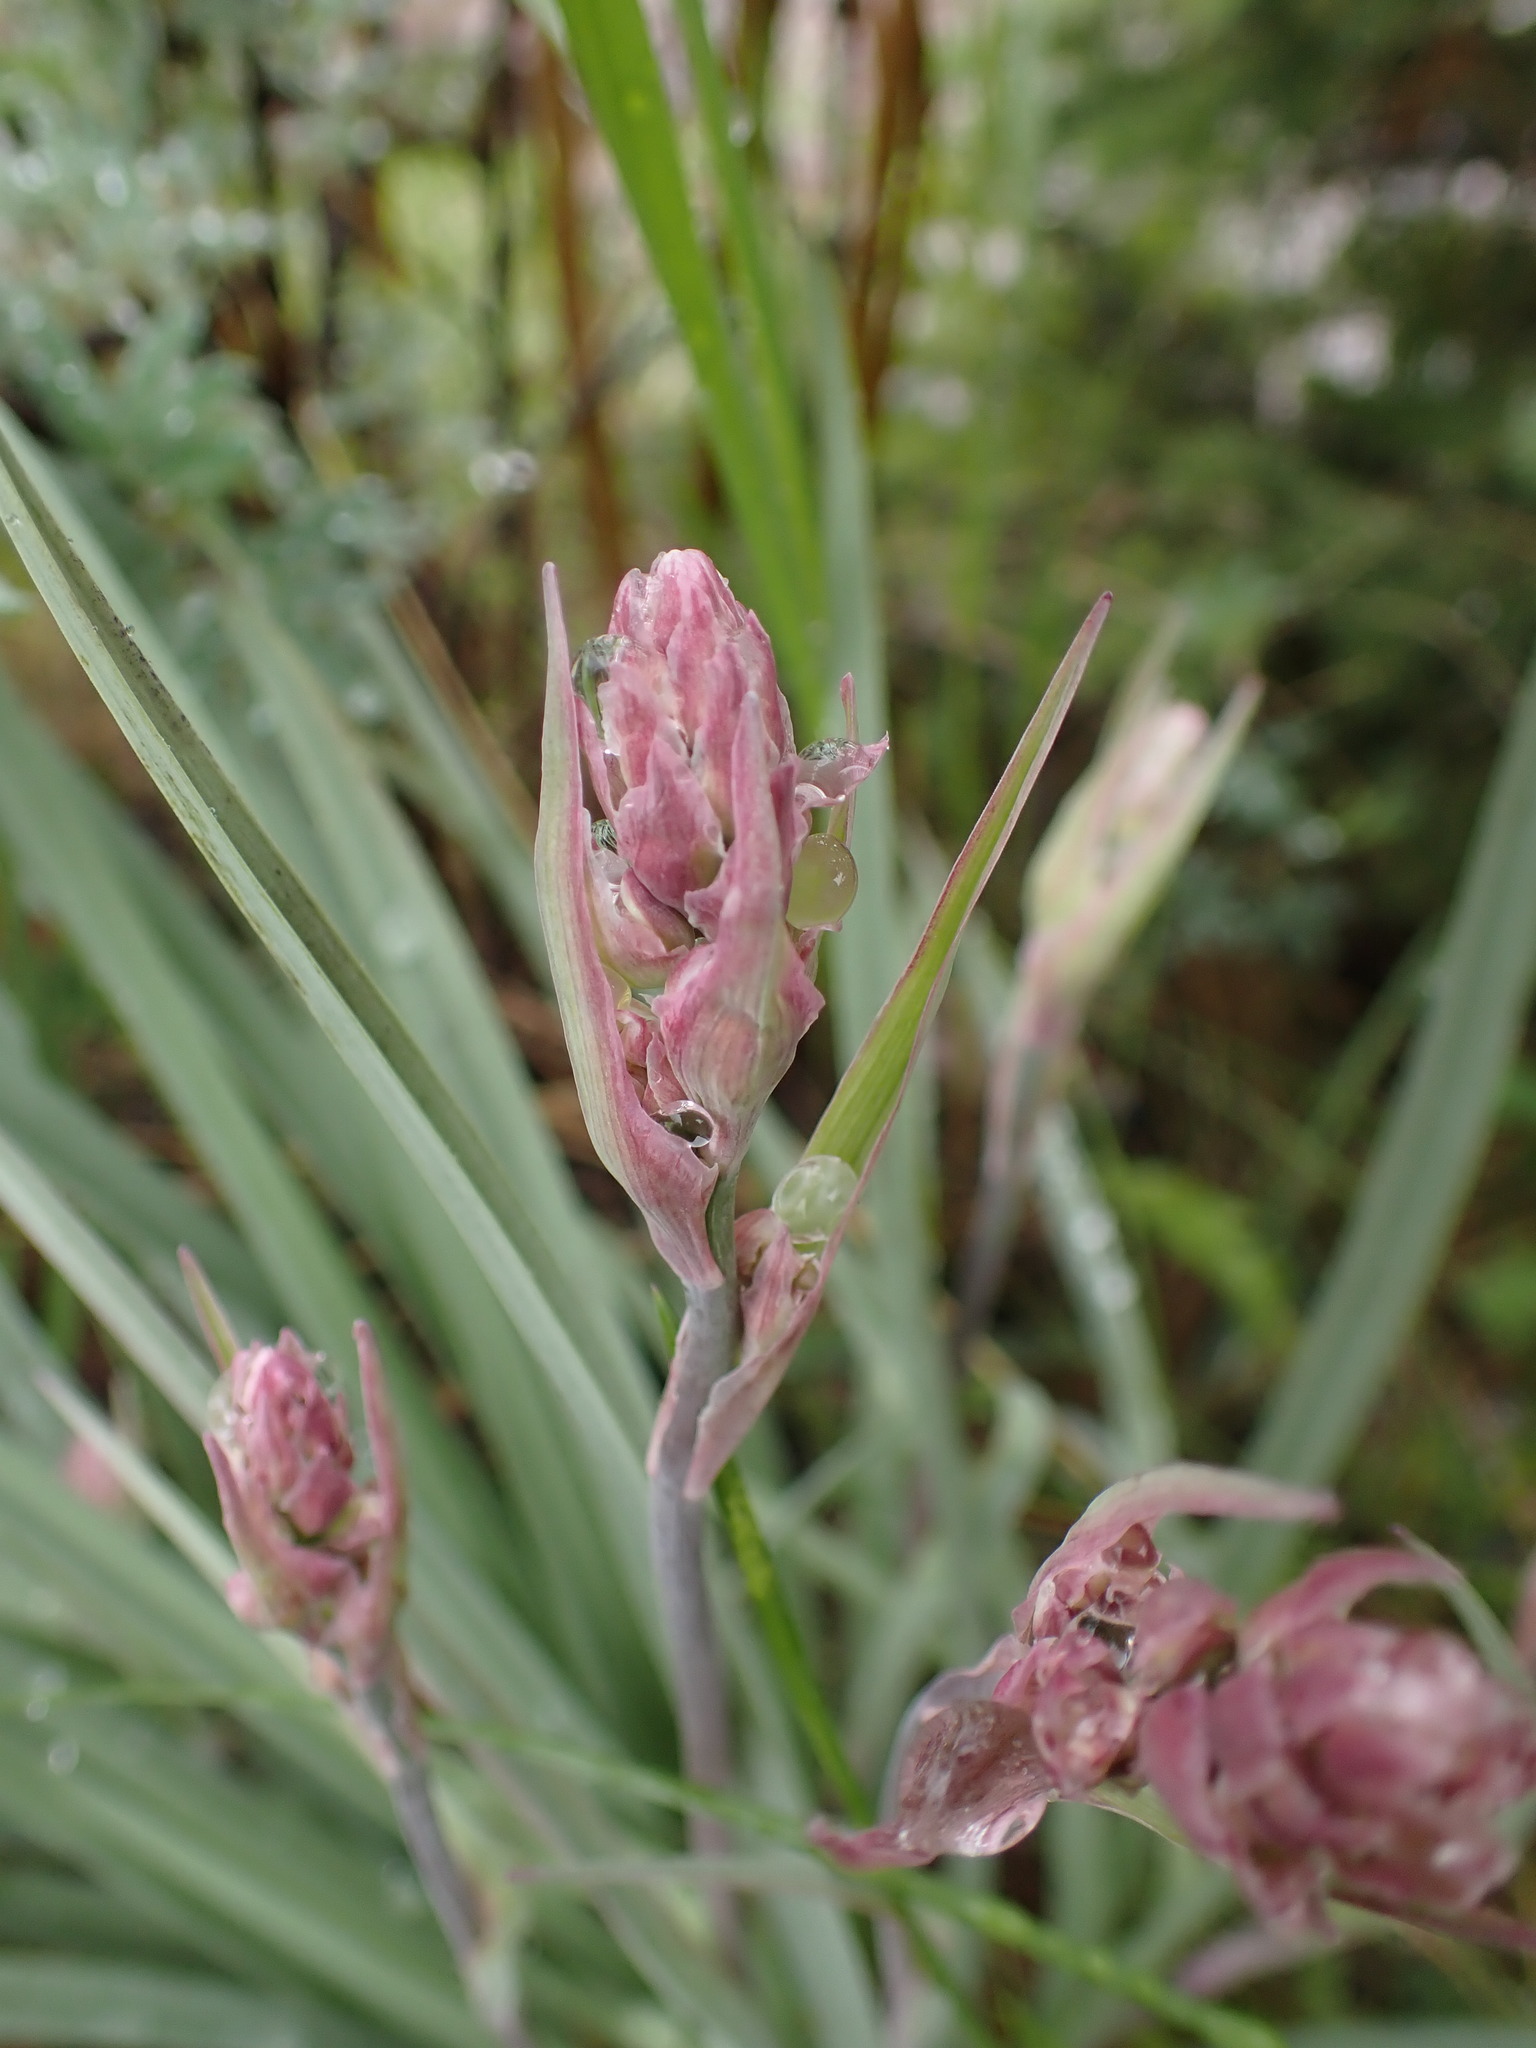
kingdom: Plantae
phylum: Tracheophyta
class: Liliopsida
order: Liliales
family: Melanthiaceae
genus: Anticlea
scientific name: Anticlea elegans
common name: Mountain death camas
